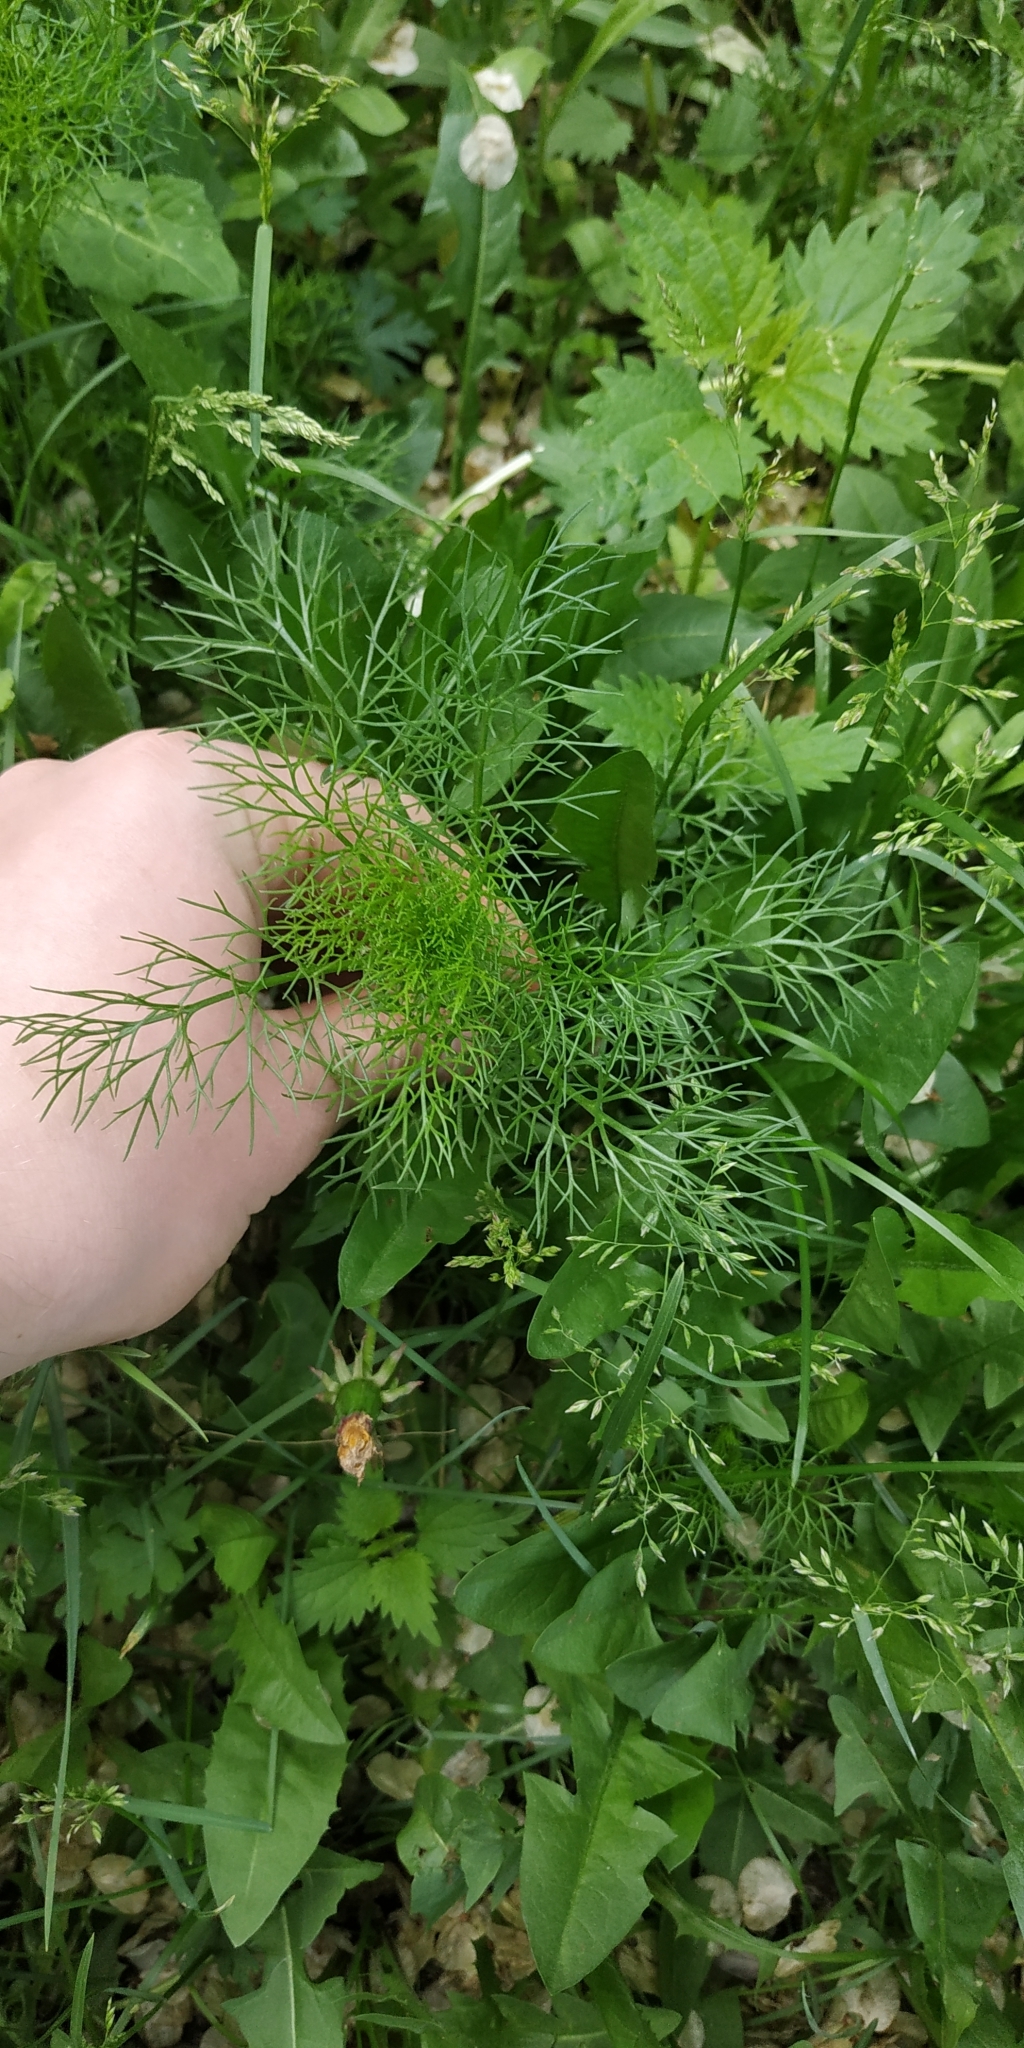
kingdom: Plantae
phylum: Tracheophyta
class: Magnoliopsida
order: Asterales
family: Asteraceae
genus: Tripleurospermum
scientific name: Tripleurospermum inodorum
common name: Scentless mayweed
